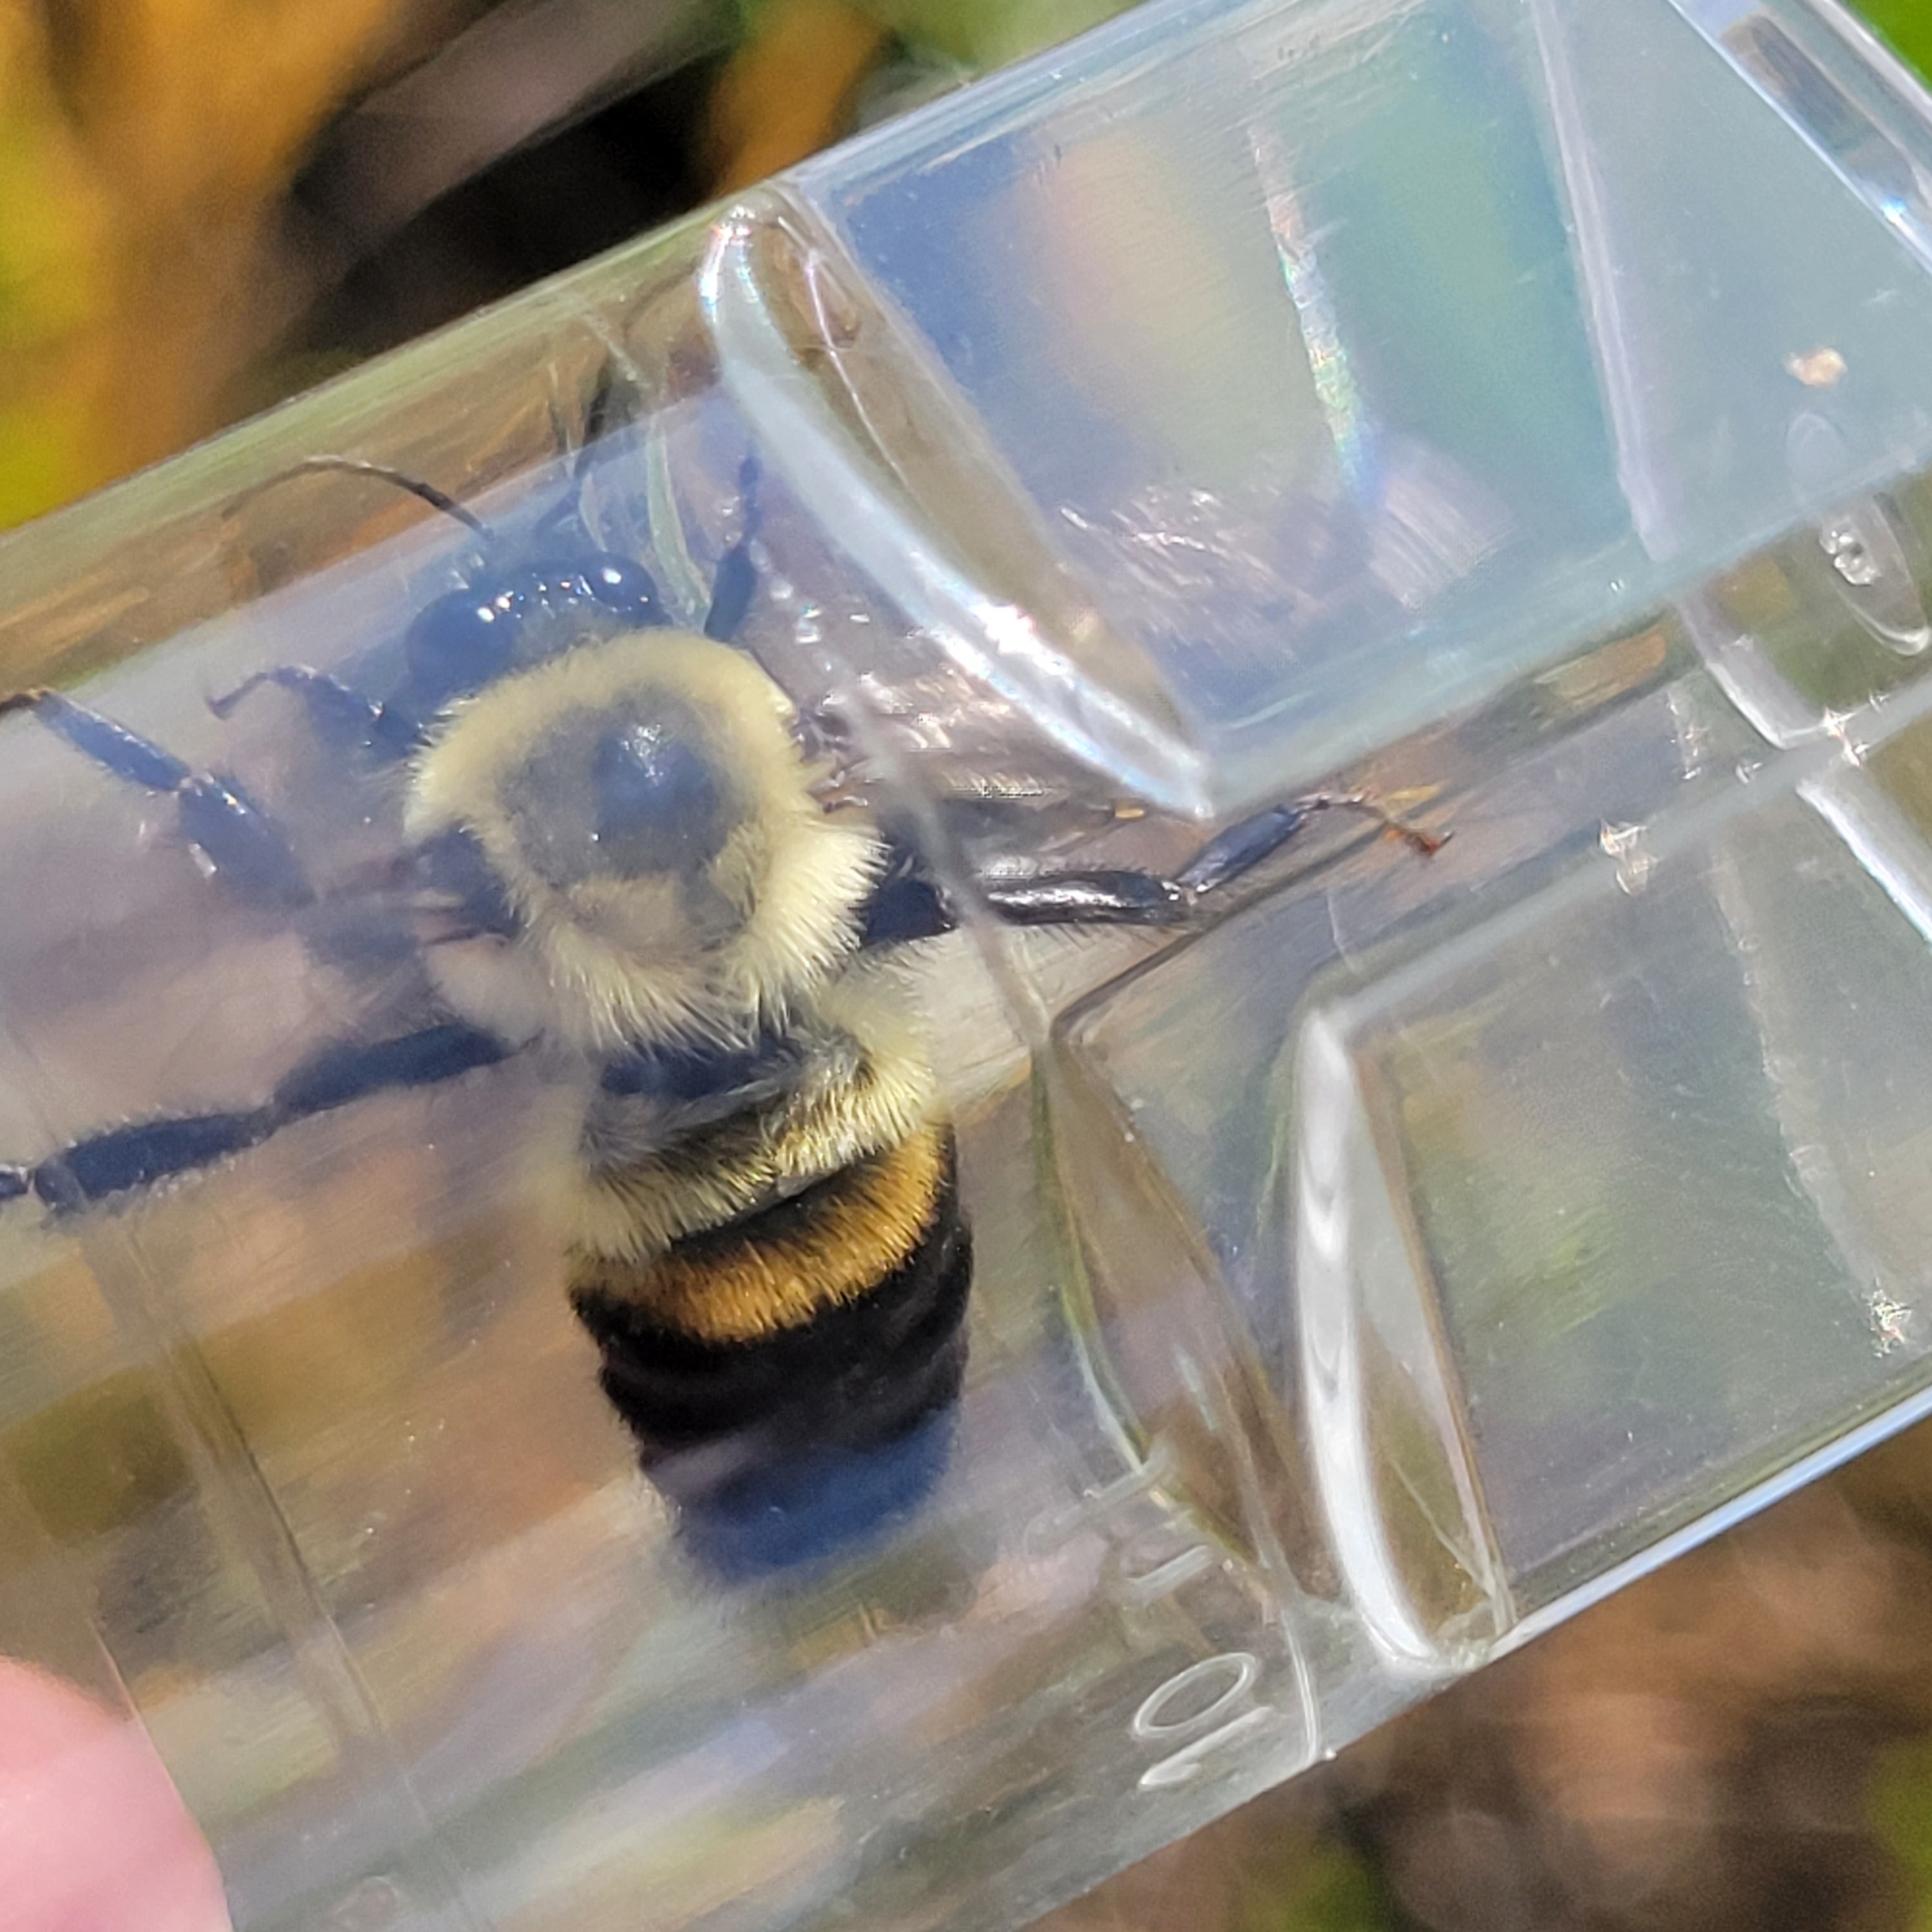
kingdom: Animalia
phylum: Arthropoda
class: Insecta
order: Hymenoptera
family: Apidae
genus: Bombus
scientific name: Bombus griseocollis
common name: Brown-belted bumble bee
